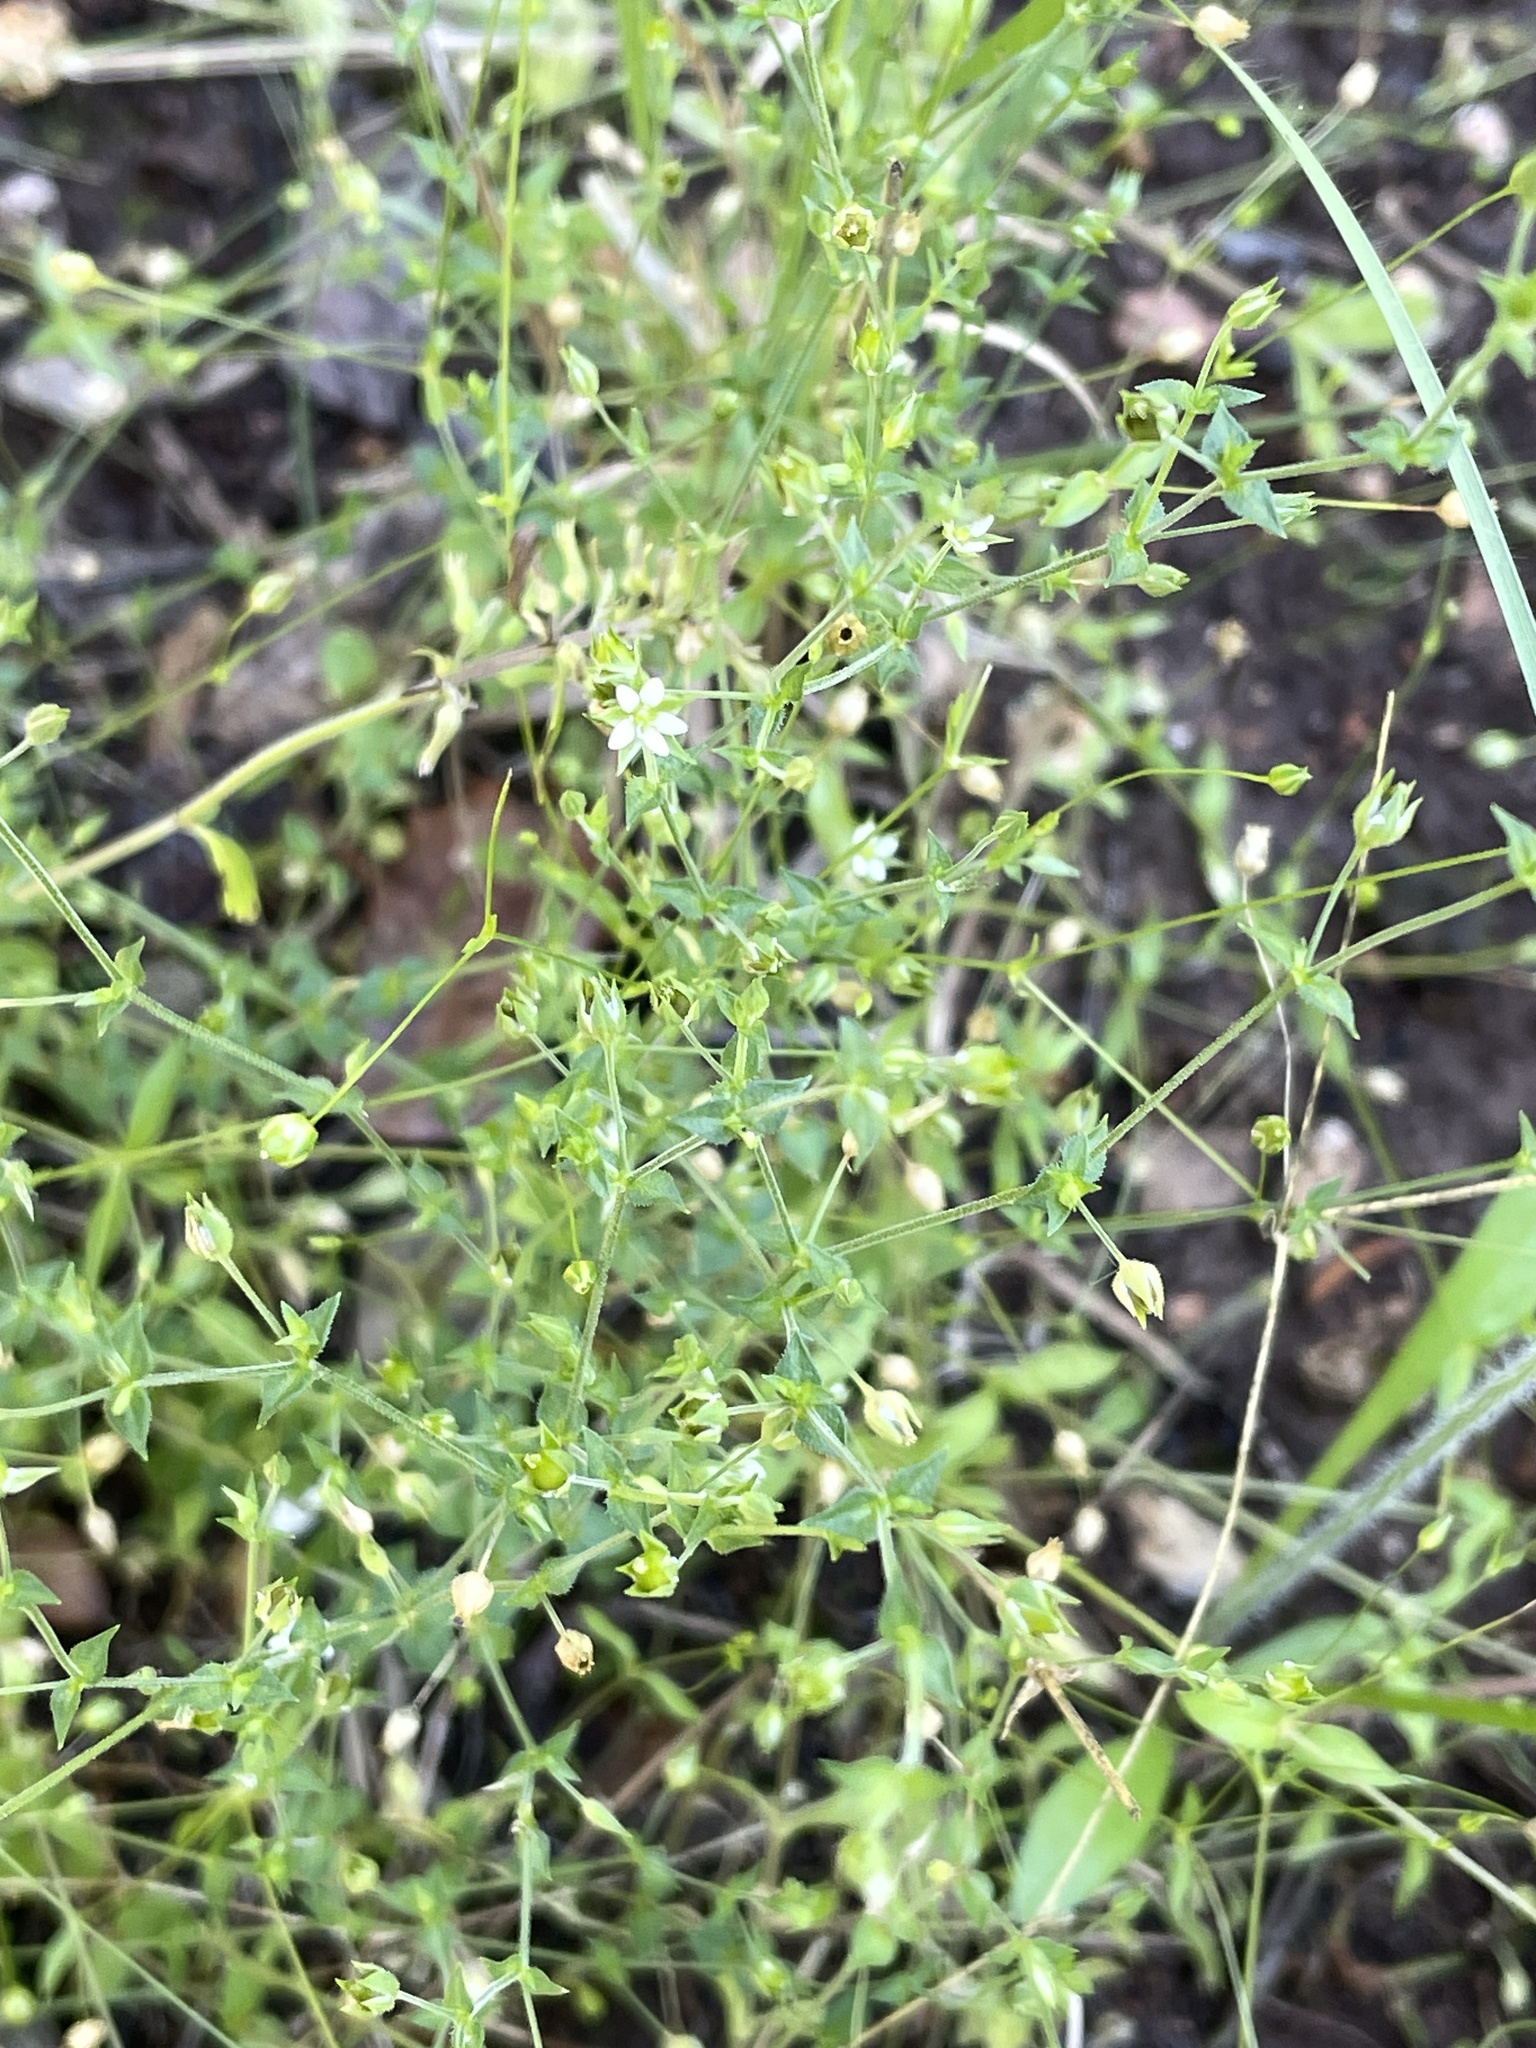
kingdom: Plantae
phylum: Tracheophyta
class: Magnoliopsida
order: Caryophyllales
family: Caryophyllaceae
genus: Arenaria
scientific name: Arenaria serpyllifolia
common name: Thyme-leaved sandwort
